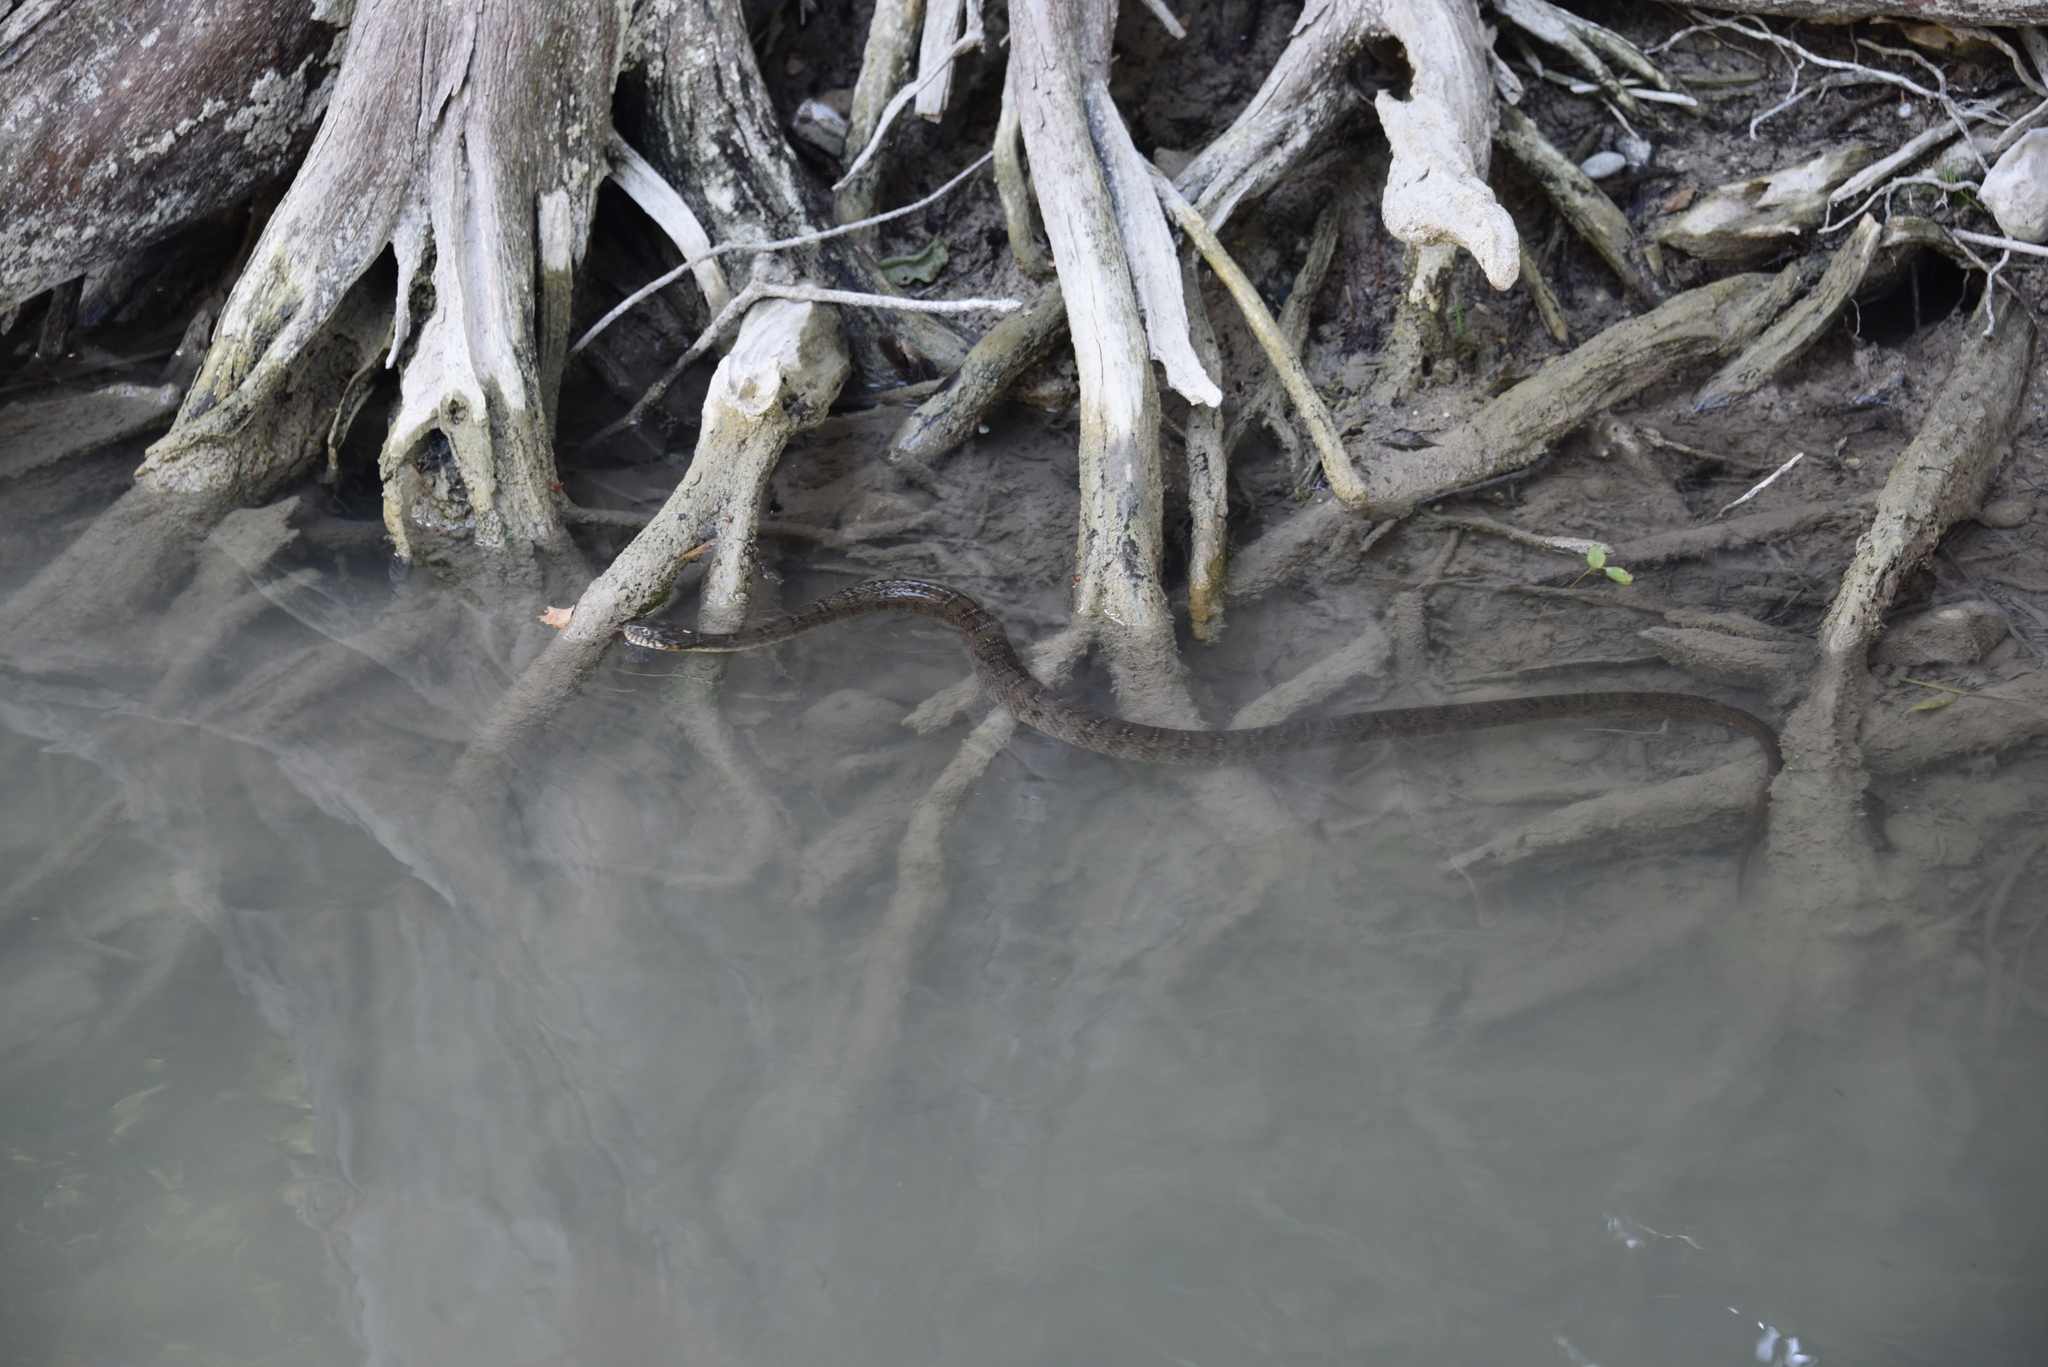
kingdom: Animalia
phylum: Chordata
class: Squamata
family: Colubridae
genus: Nerodia
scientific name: Nerodia erythrogaster
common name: Plainbelly water snake
